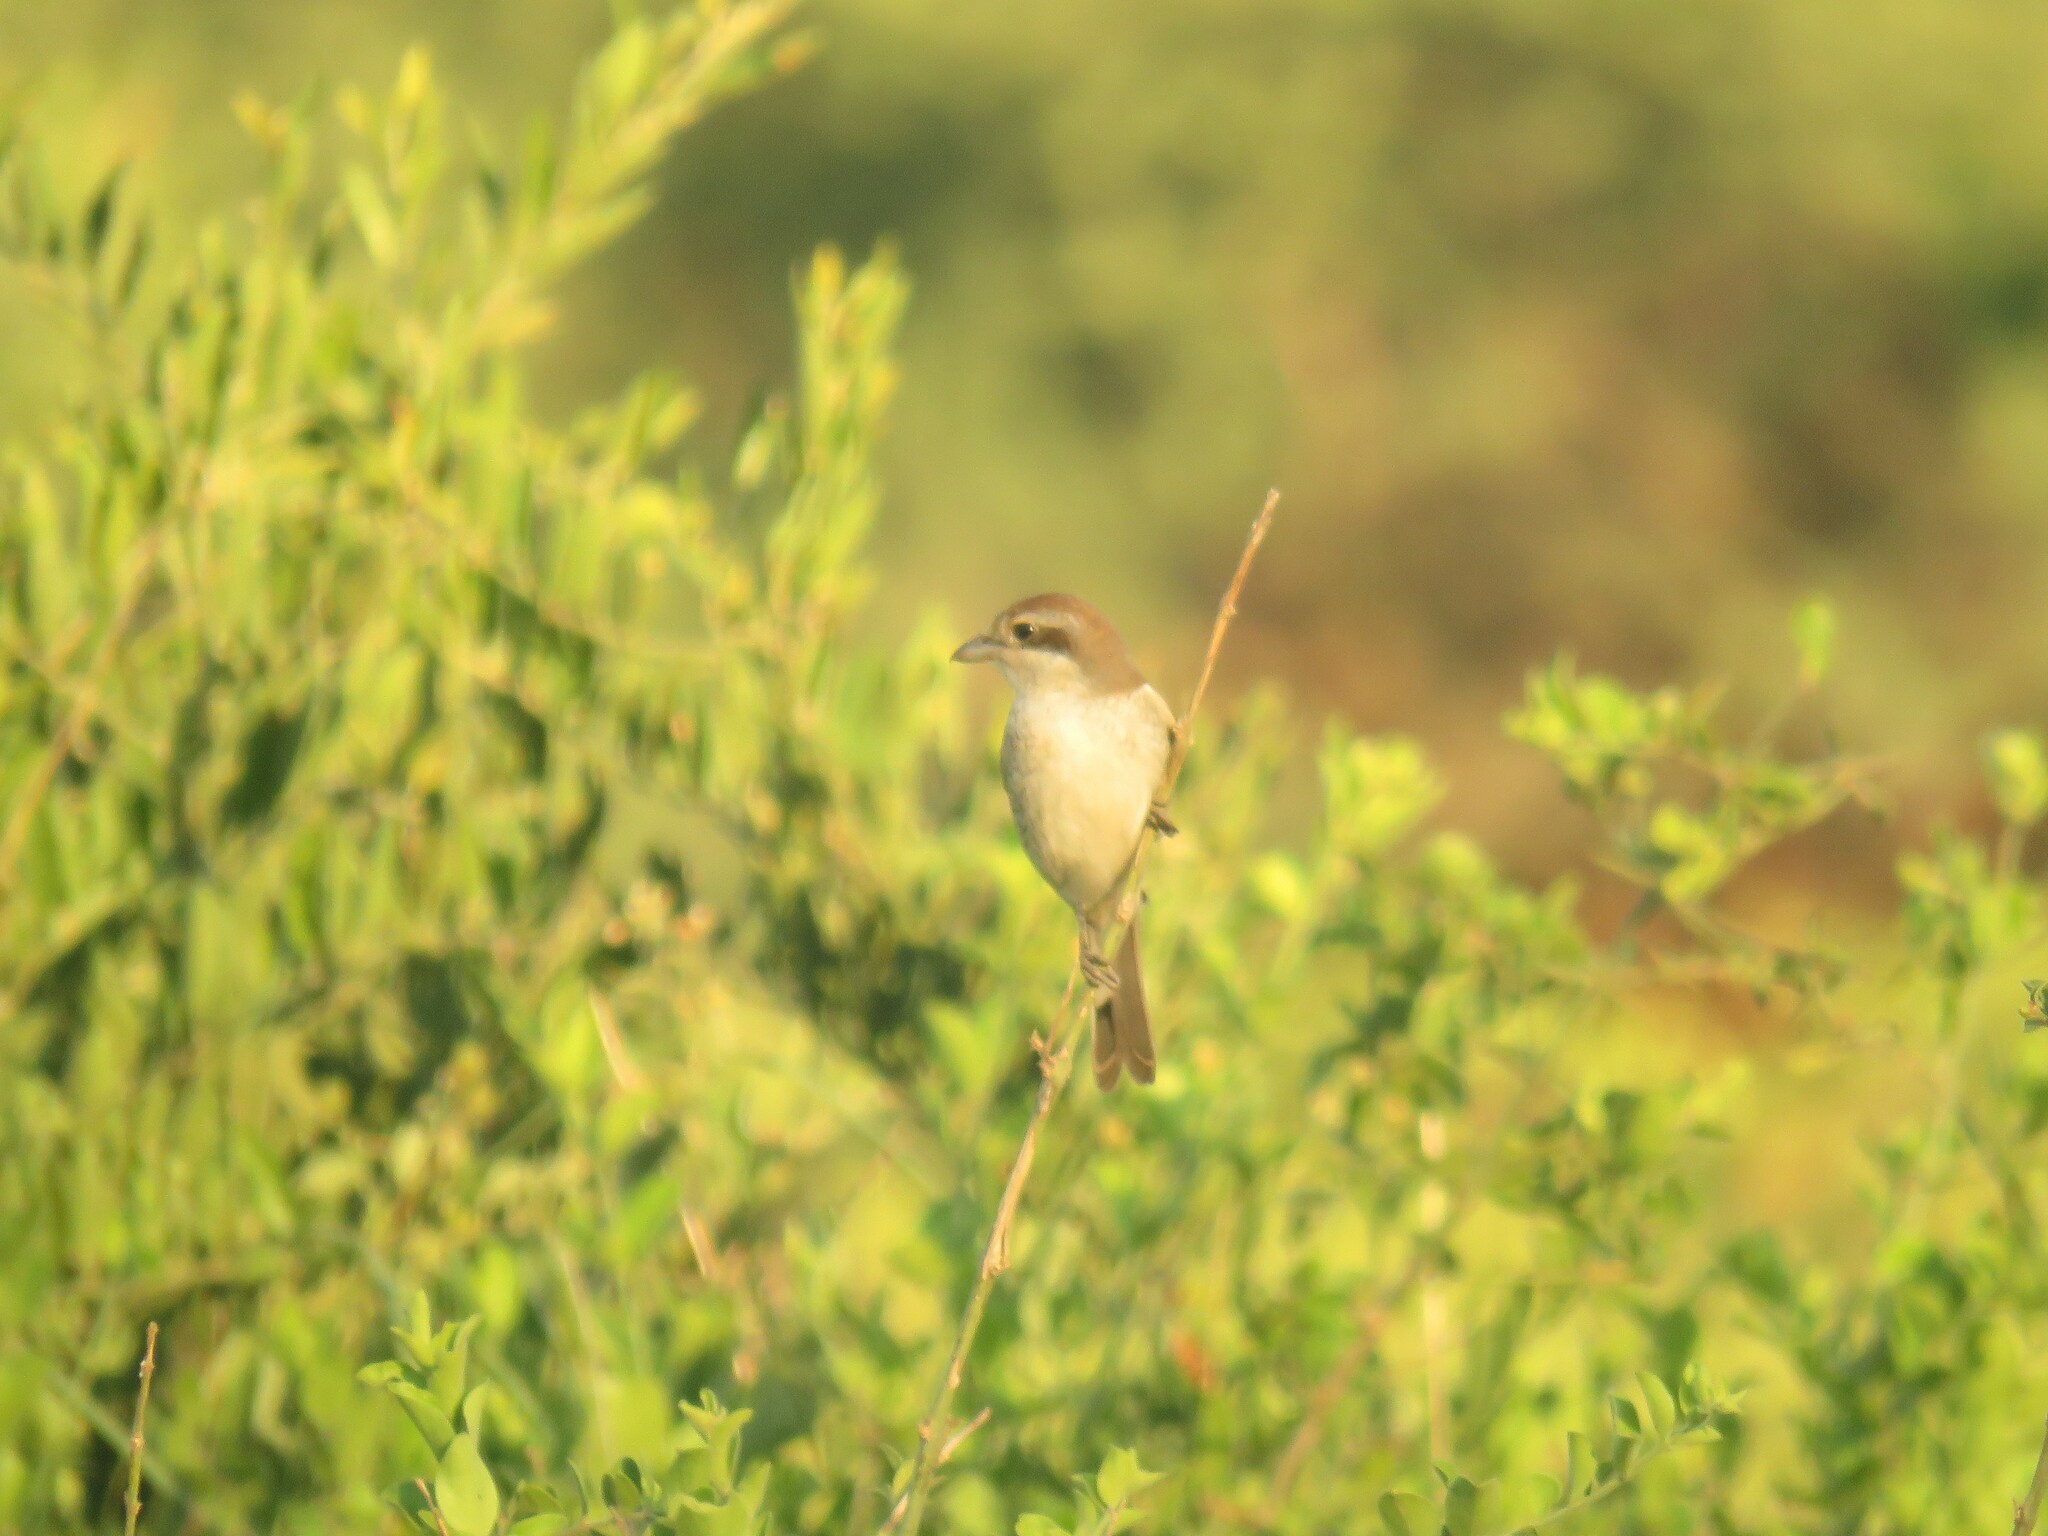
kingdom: Animalia
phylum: Chordata
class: Aves
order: Passeriformes
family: Laniidae
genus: Lanius
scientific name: Lanius collurio
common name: Red-backed shrike
